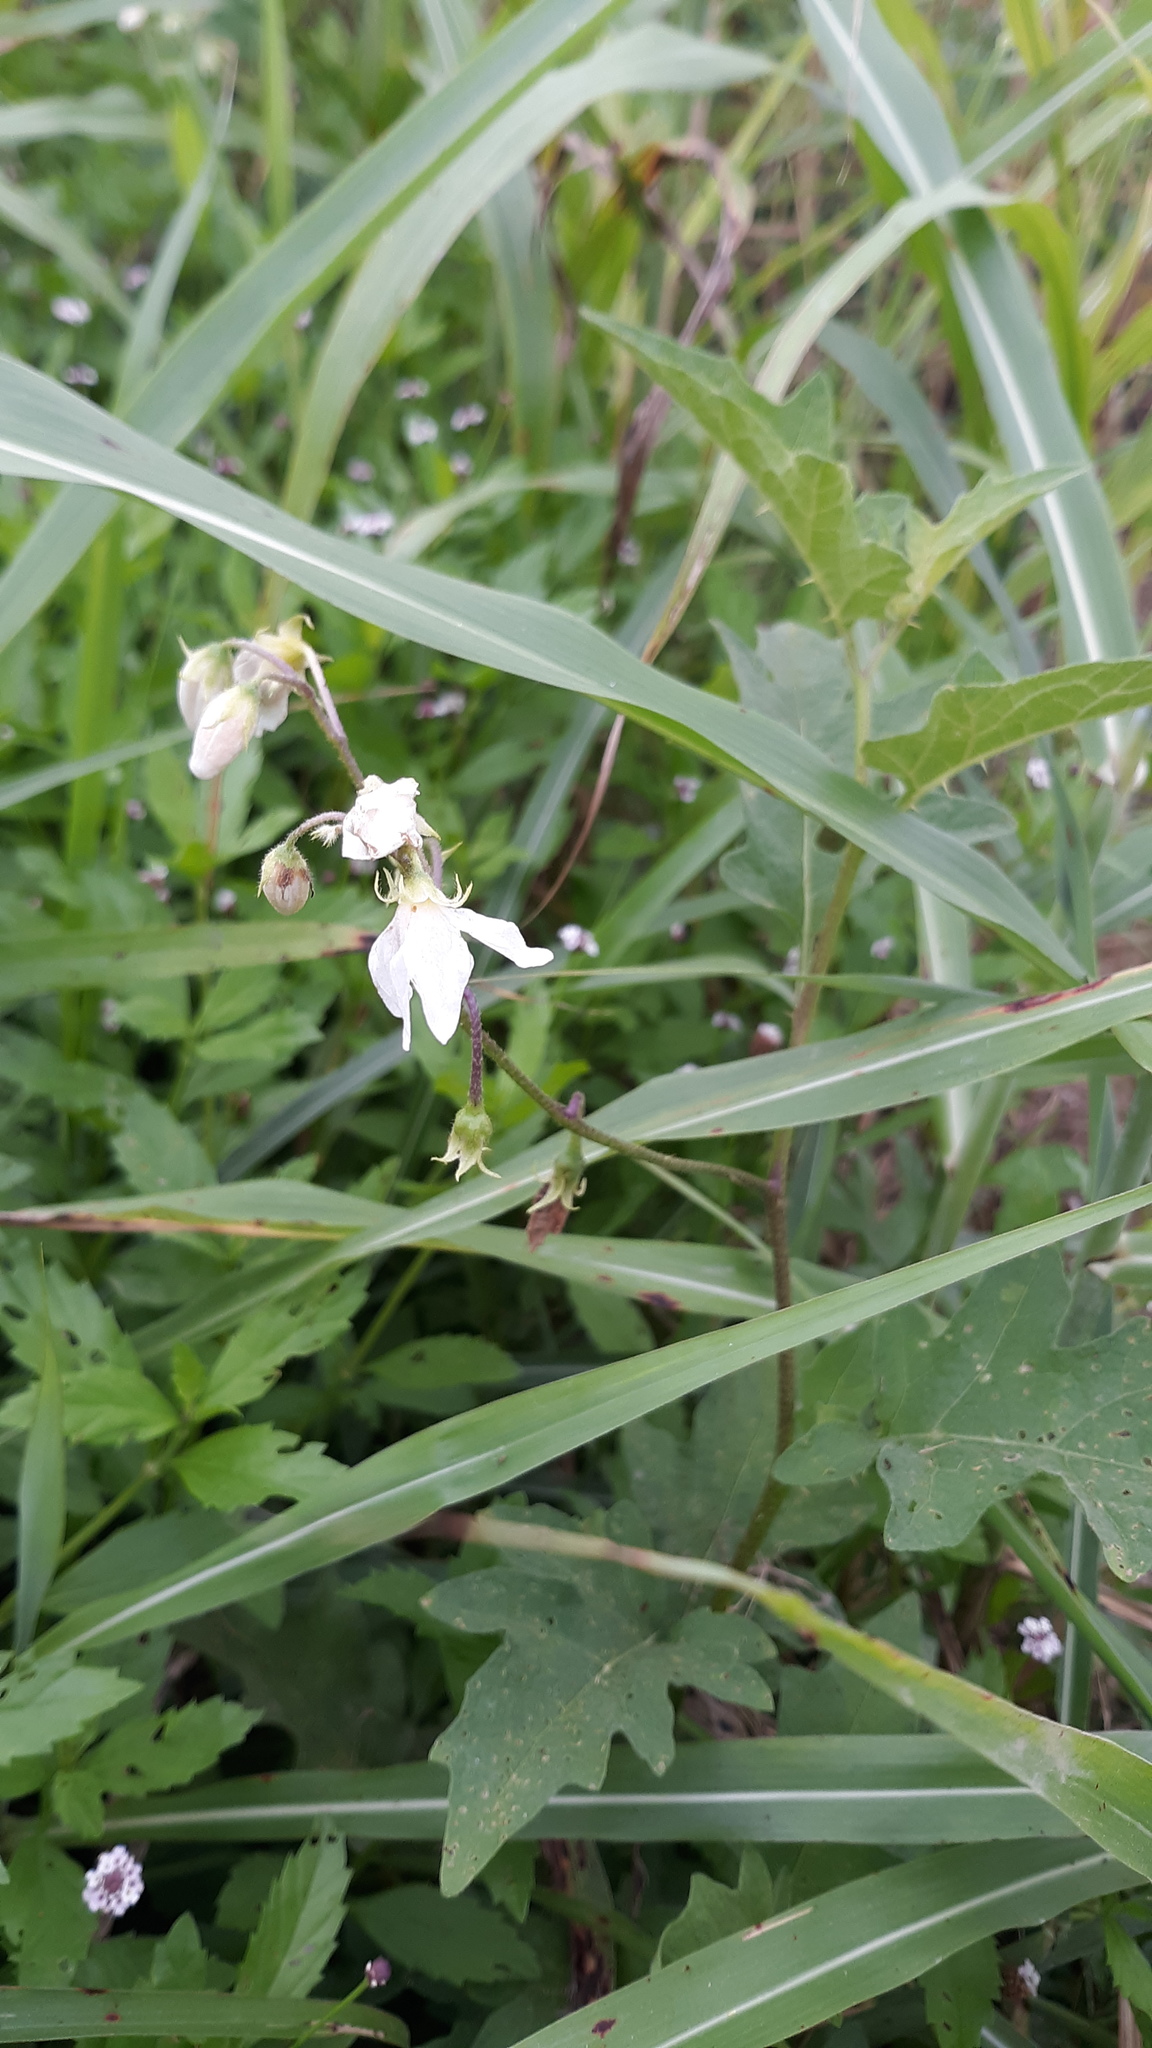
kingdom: Plantae
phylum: Tracheophyta
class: Magnoliopsida
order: Solanales
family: Solanaceae
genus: Solanum
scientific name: Solanum carolinense
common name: Horse-nettle
